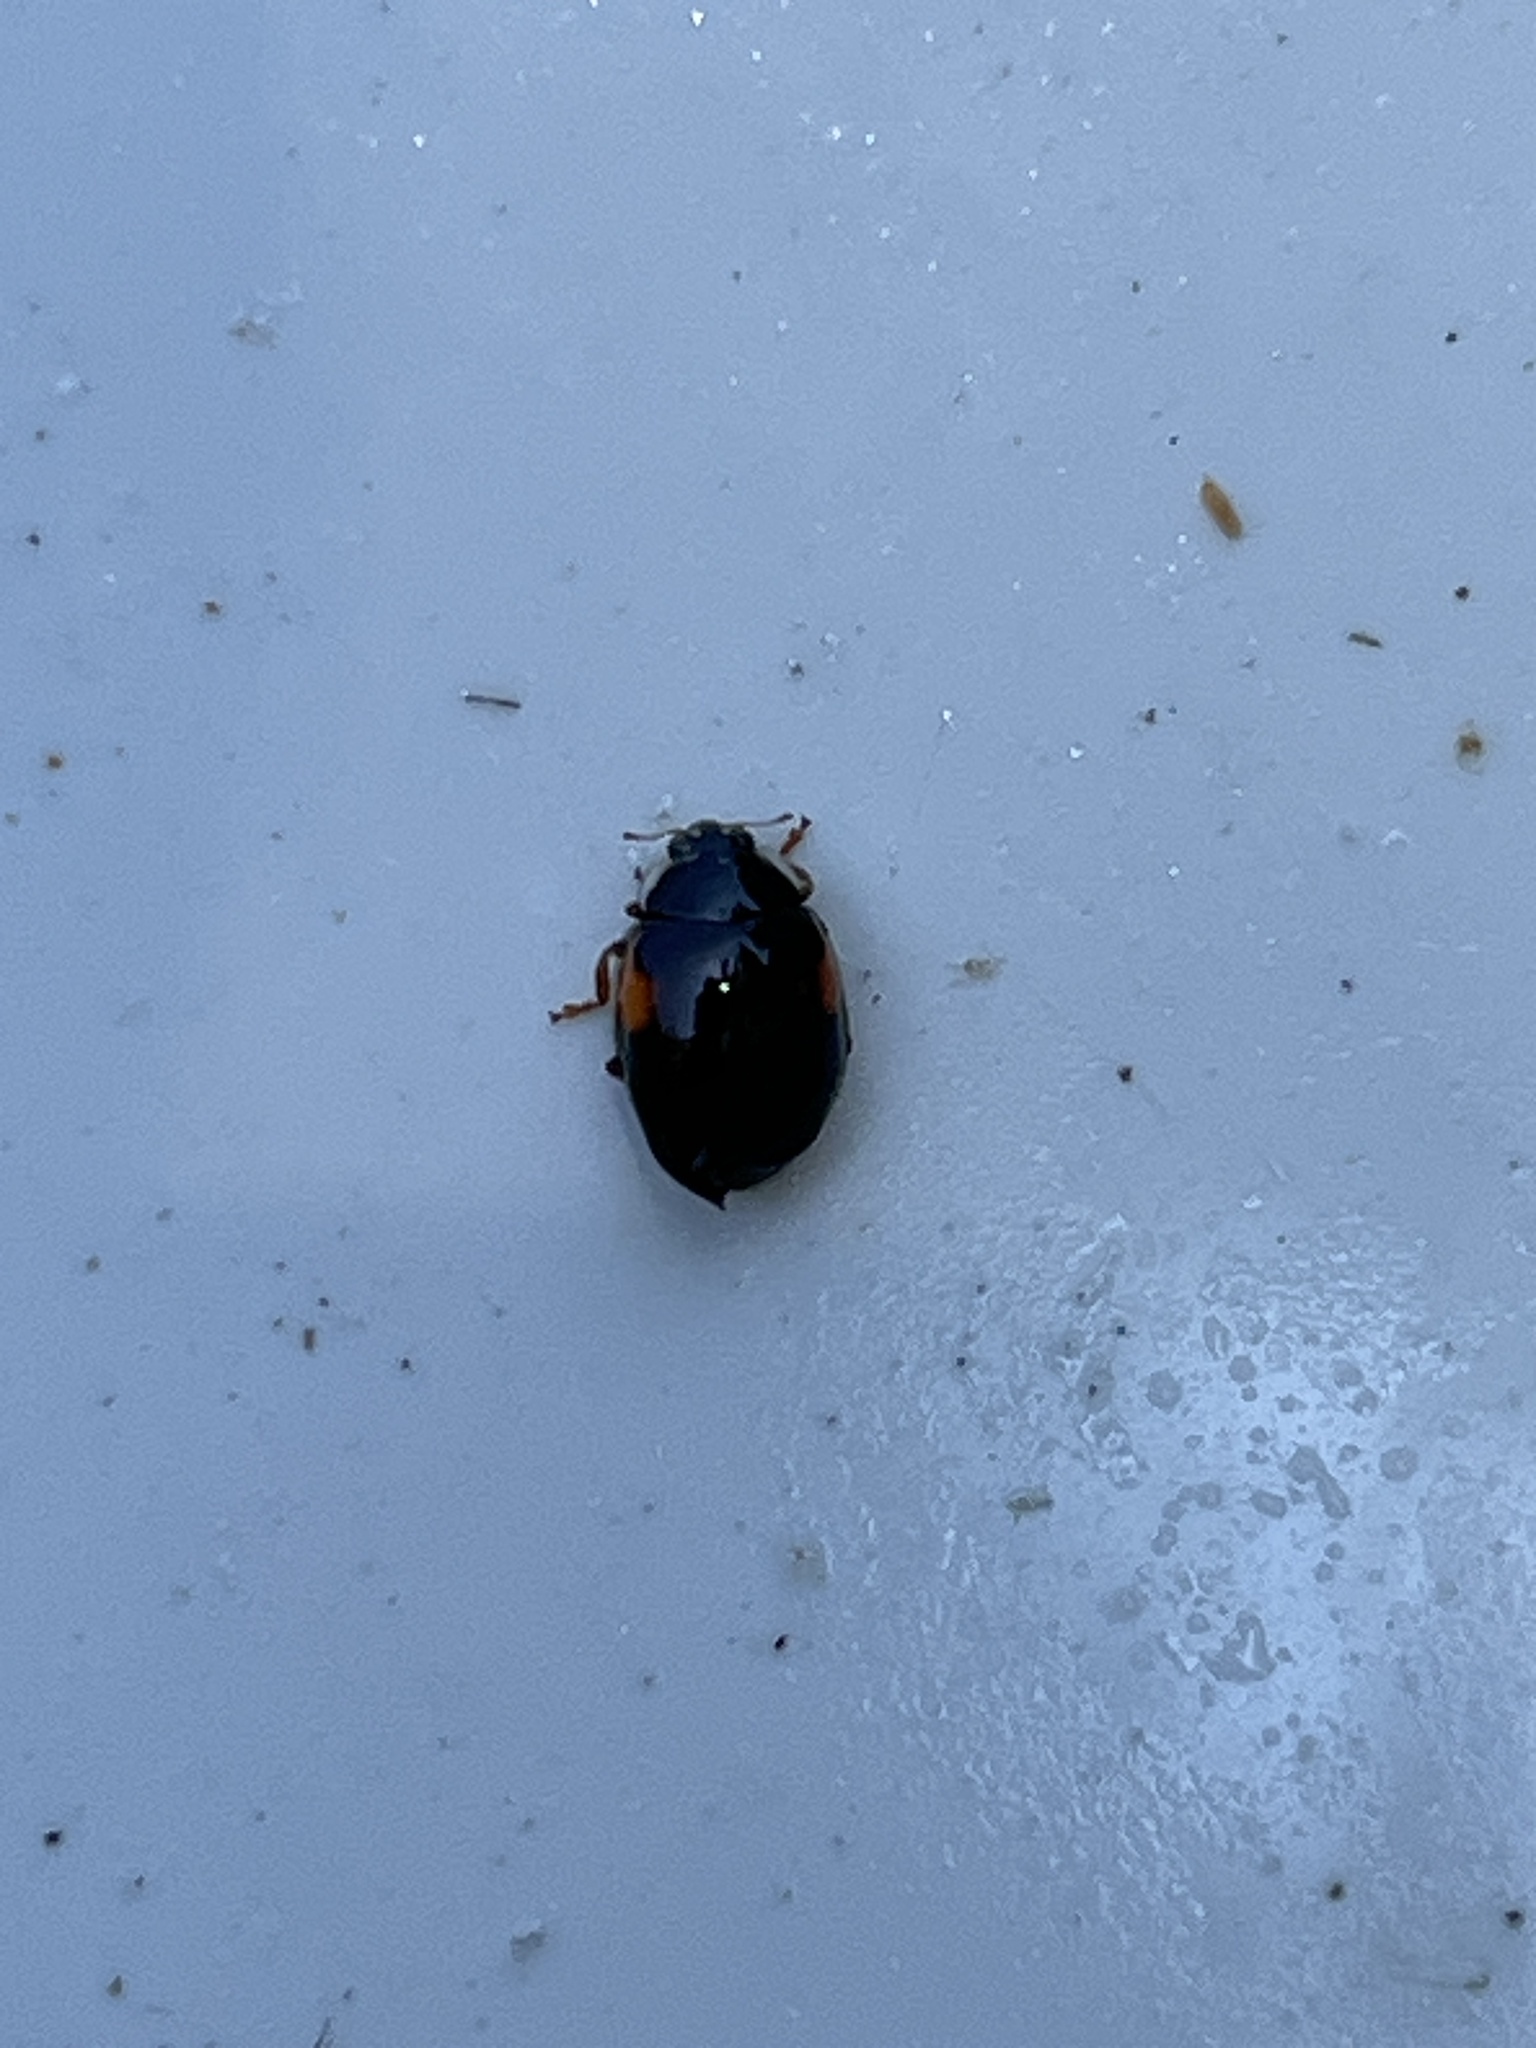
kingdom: Animalia
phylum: Arthropoda
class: Insecta
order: Coleoptera
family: Coccinellidae
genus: Adalia
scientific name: Adalia decempunctata
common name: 10-spot ladybird
